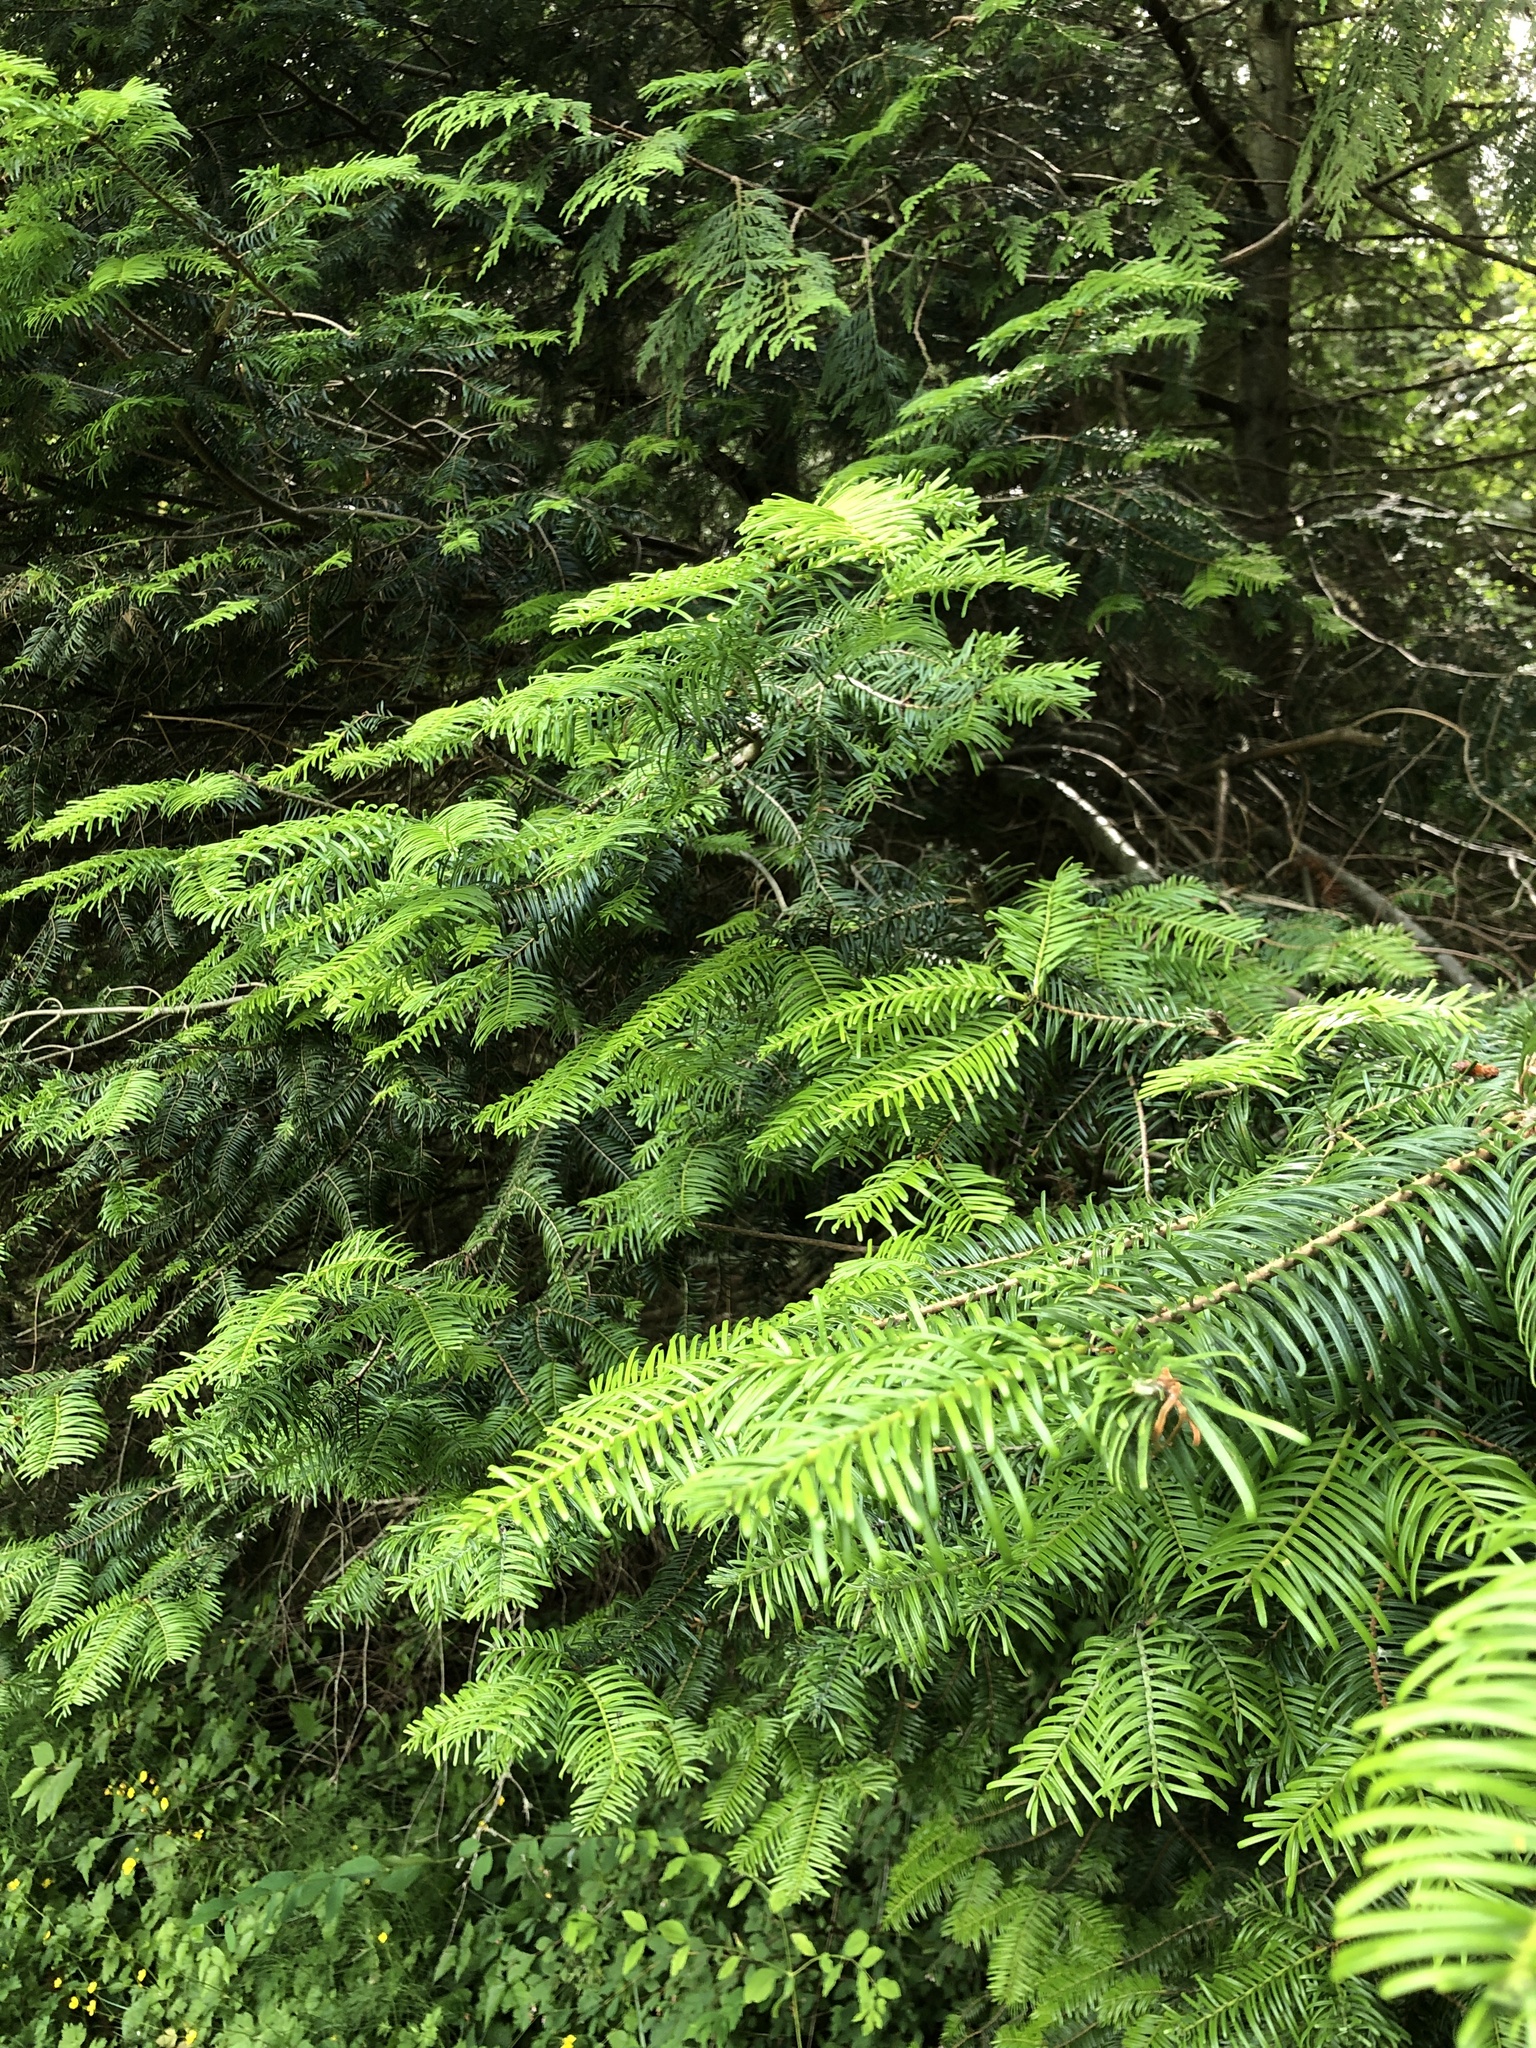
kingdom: Plantae
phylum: Tracheophyta
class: Pinopsida
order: Pinales
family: Pinaceae
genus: Abies
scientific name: Abies grandis
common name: Giant fir
